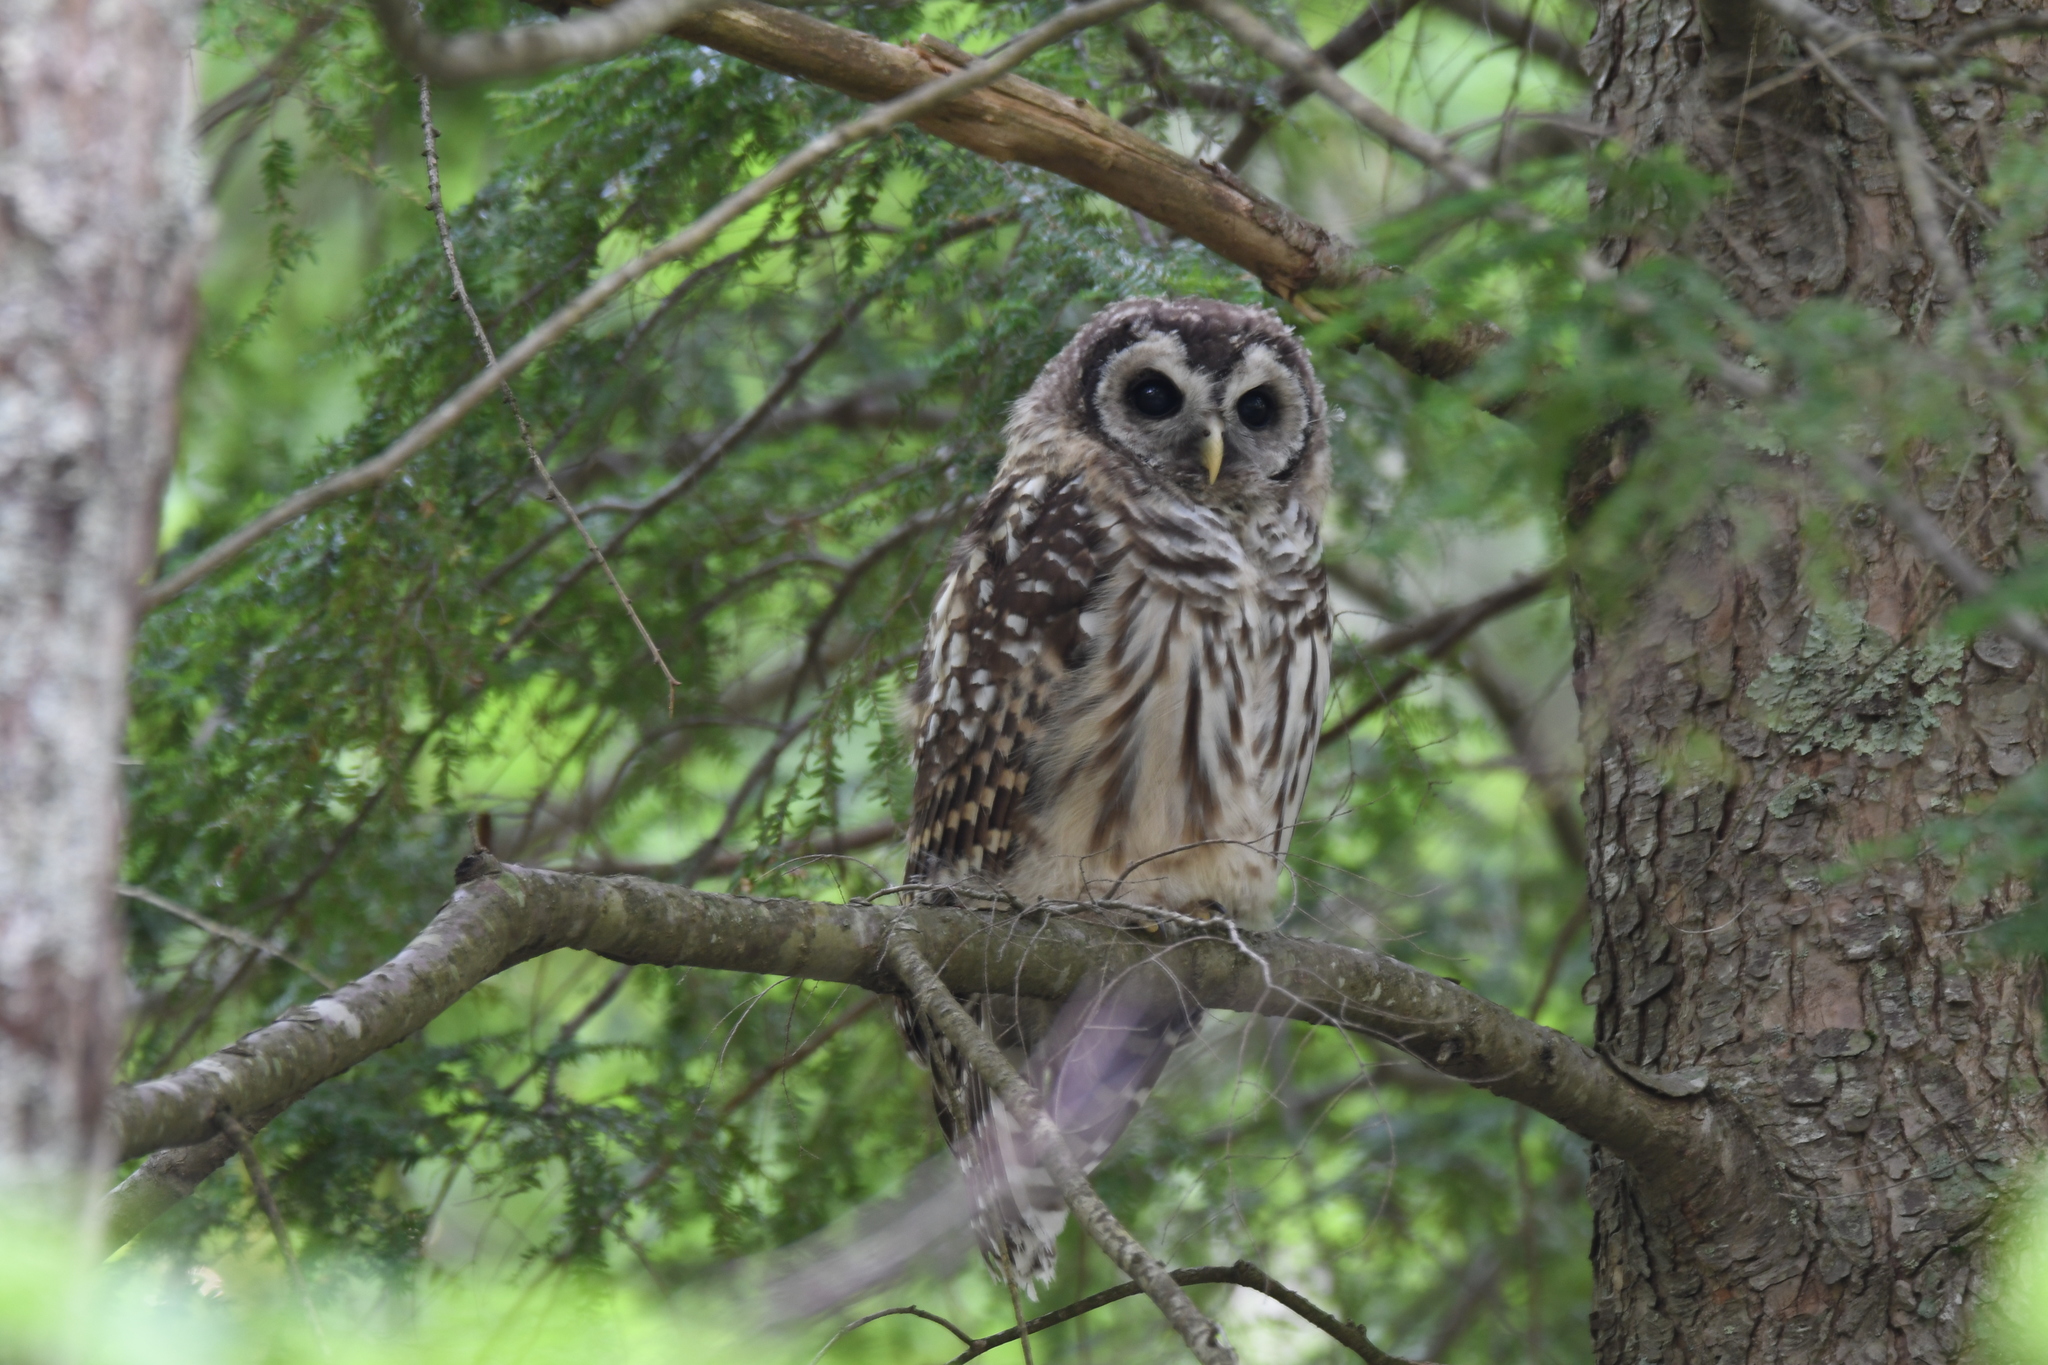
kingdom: Animalia
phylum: Chordata
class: Aves
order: Strigiformes
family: Strigidae
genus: Strix
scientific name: Strix varia
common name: Barred owl
